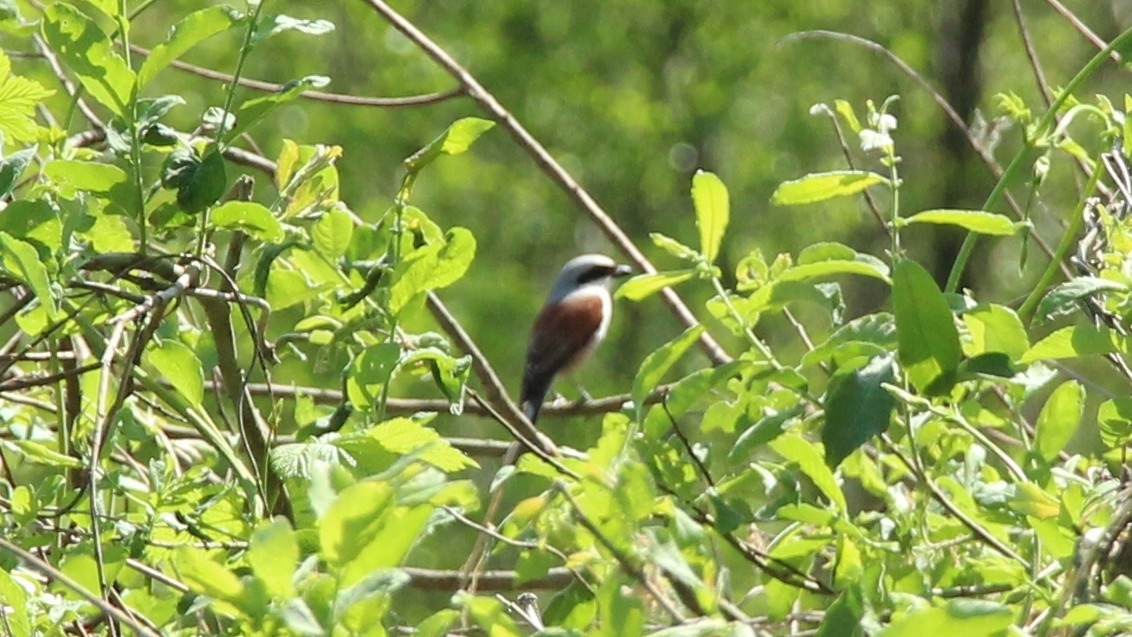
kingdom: Animalia
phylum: Chordata
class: Aves
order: Passeriformes
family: Laniidae
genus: Lanius
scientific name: Lanius collurio
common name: Red-backed shrike
